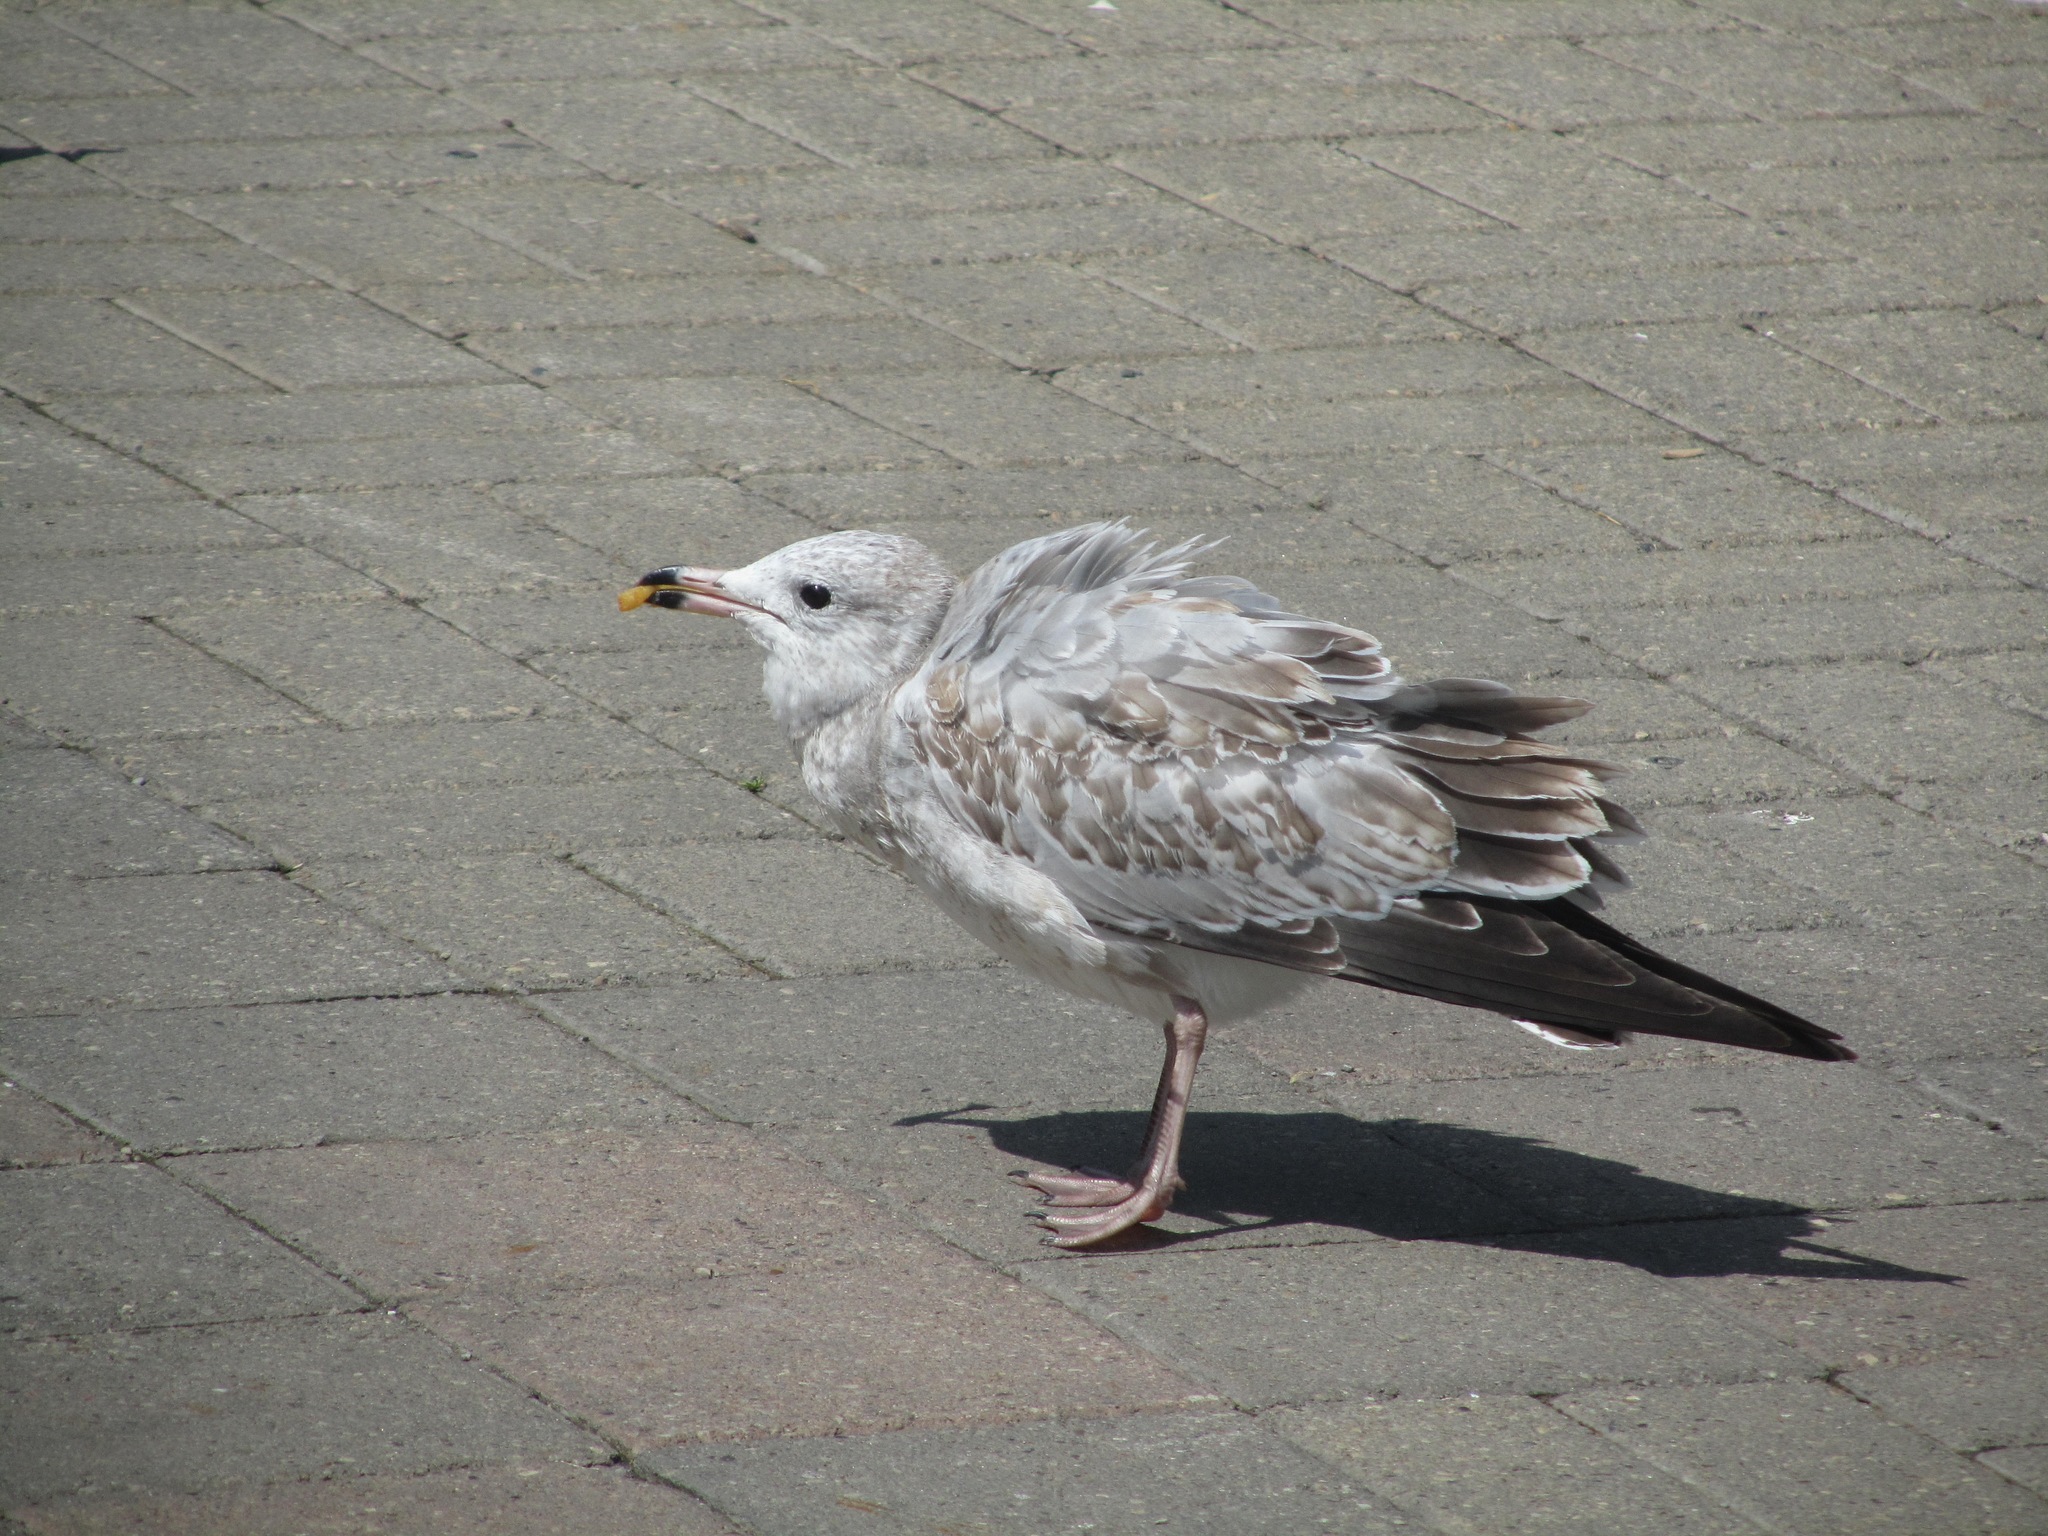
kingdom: Animalia
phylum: Chordata
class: Aves
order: Charadriiformes
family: Laridae
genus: Larus
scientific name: Larus delawarensis
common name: Ring-billed gull
